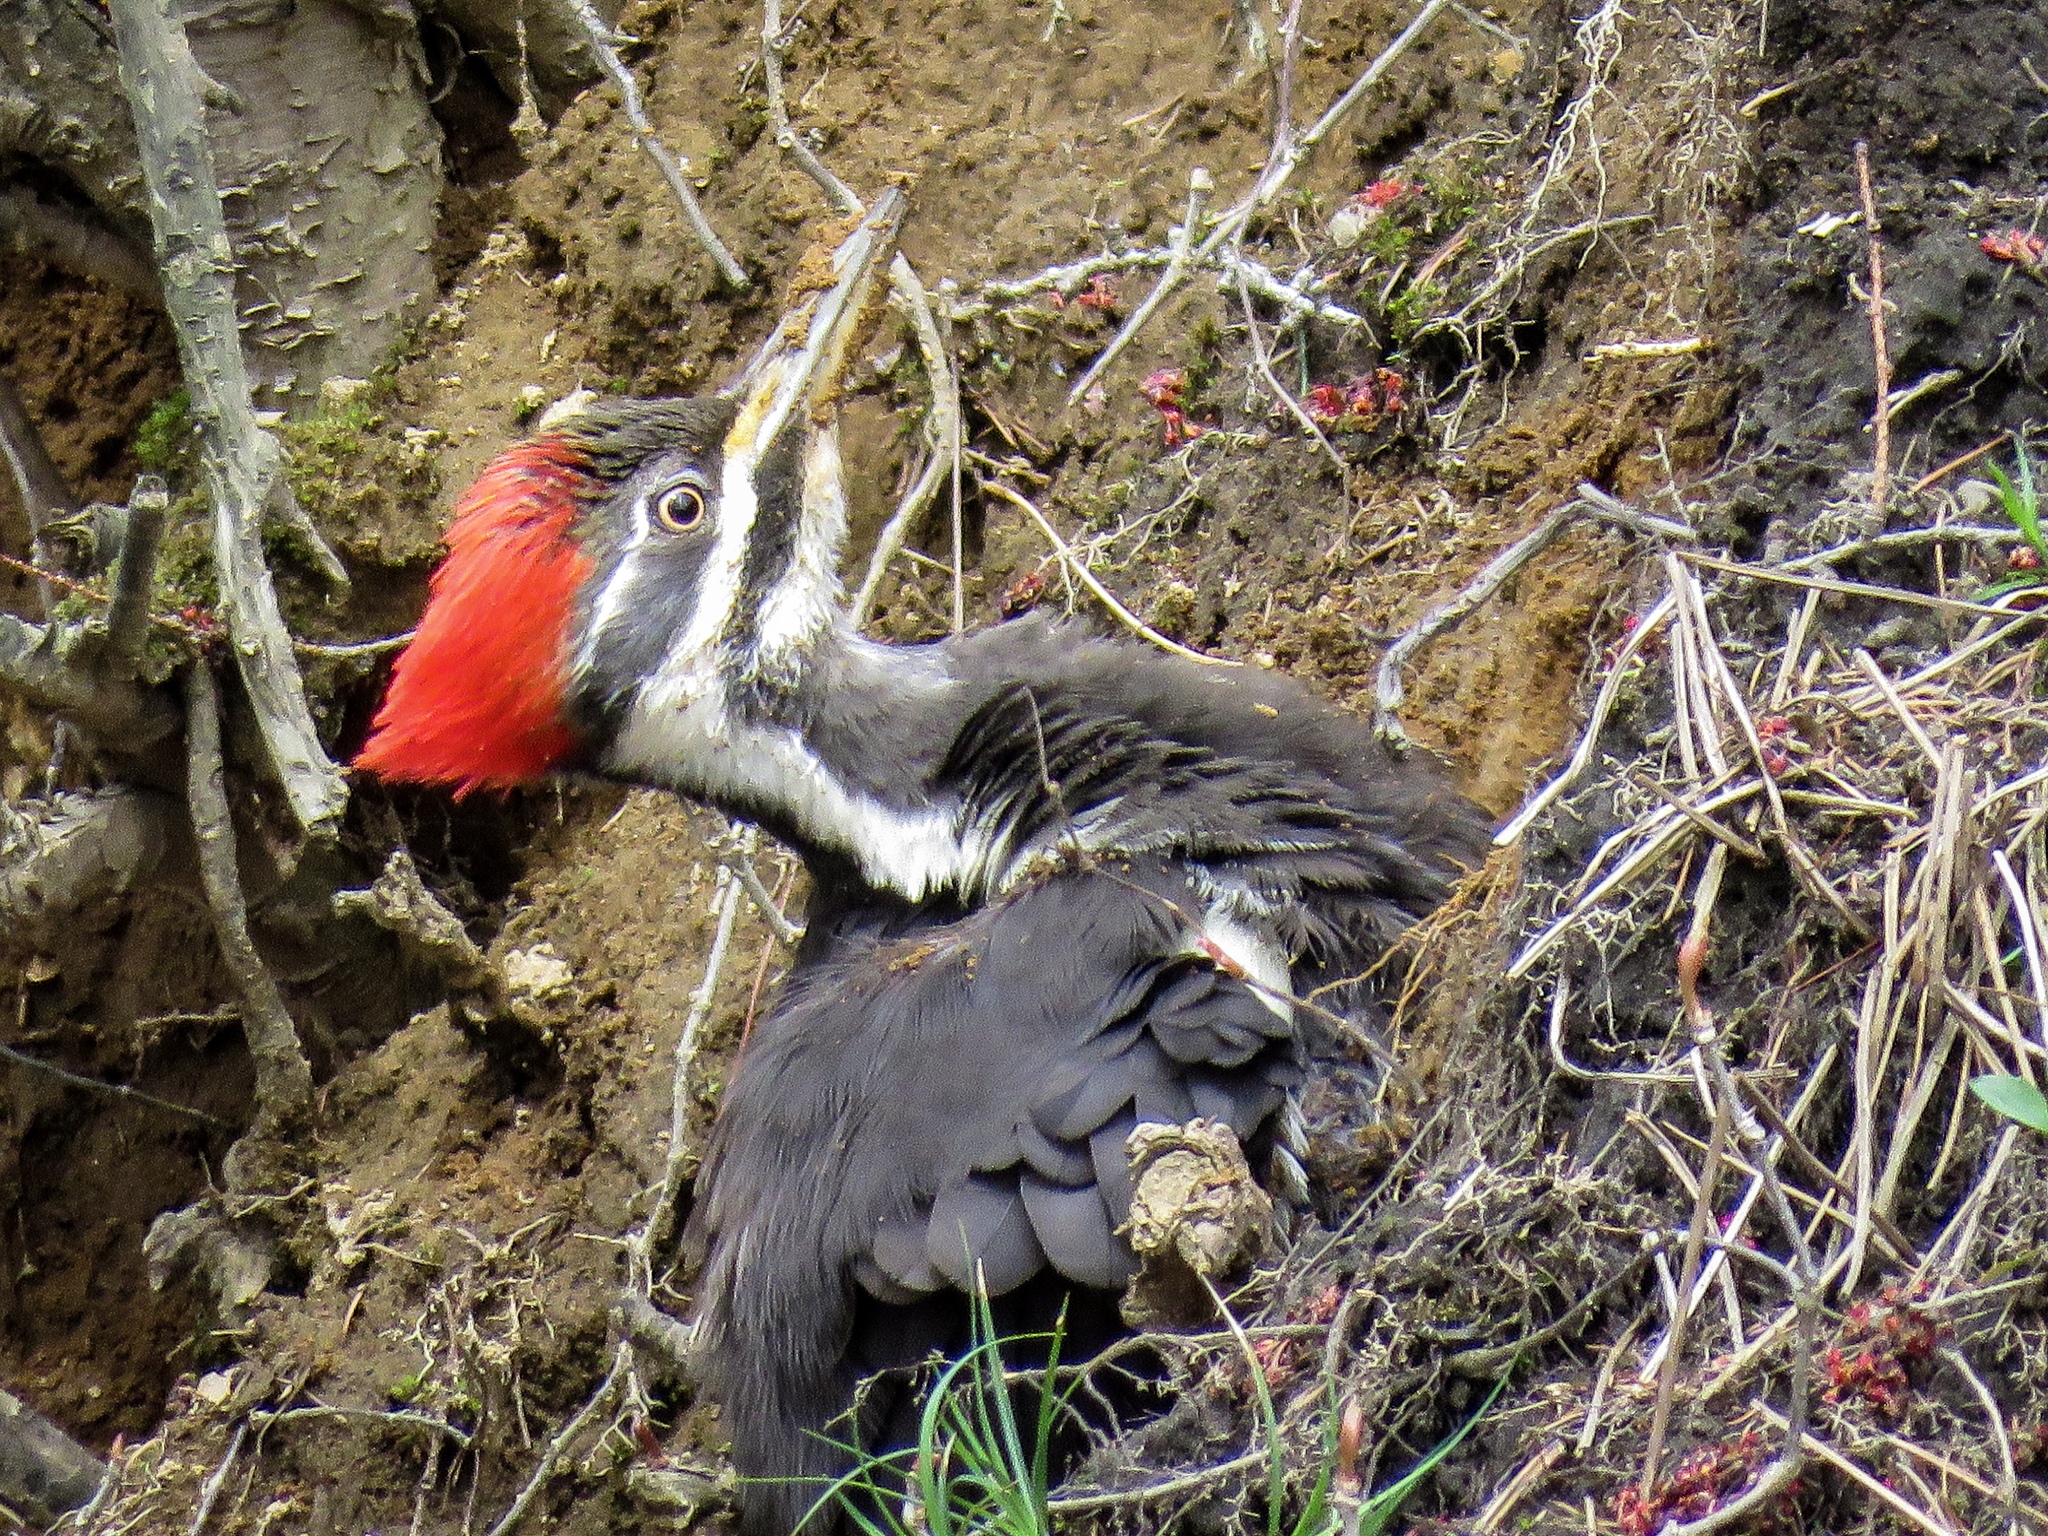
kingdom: Animalia
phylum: Chordata
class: Aves
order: Piciformes
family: Picidae
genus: Dryocopus
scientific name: Dryocopus pileatus
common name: Pileated woodpecker
